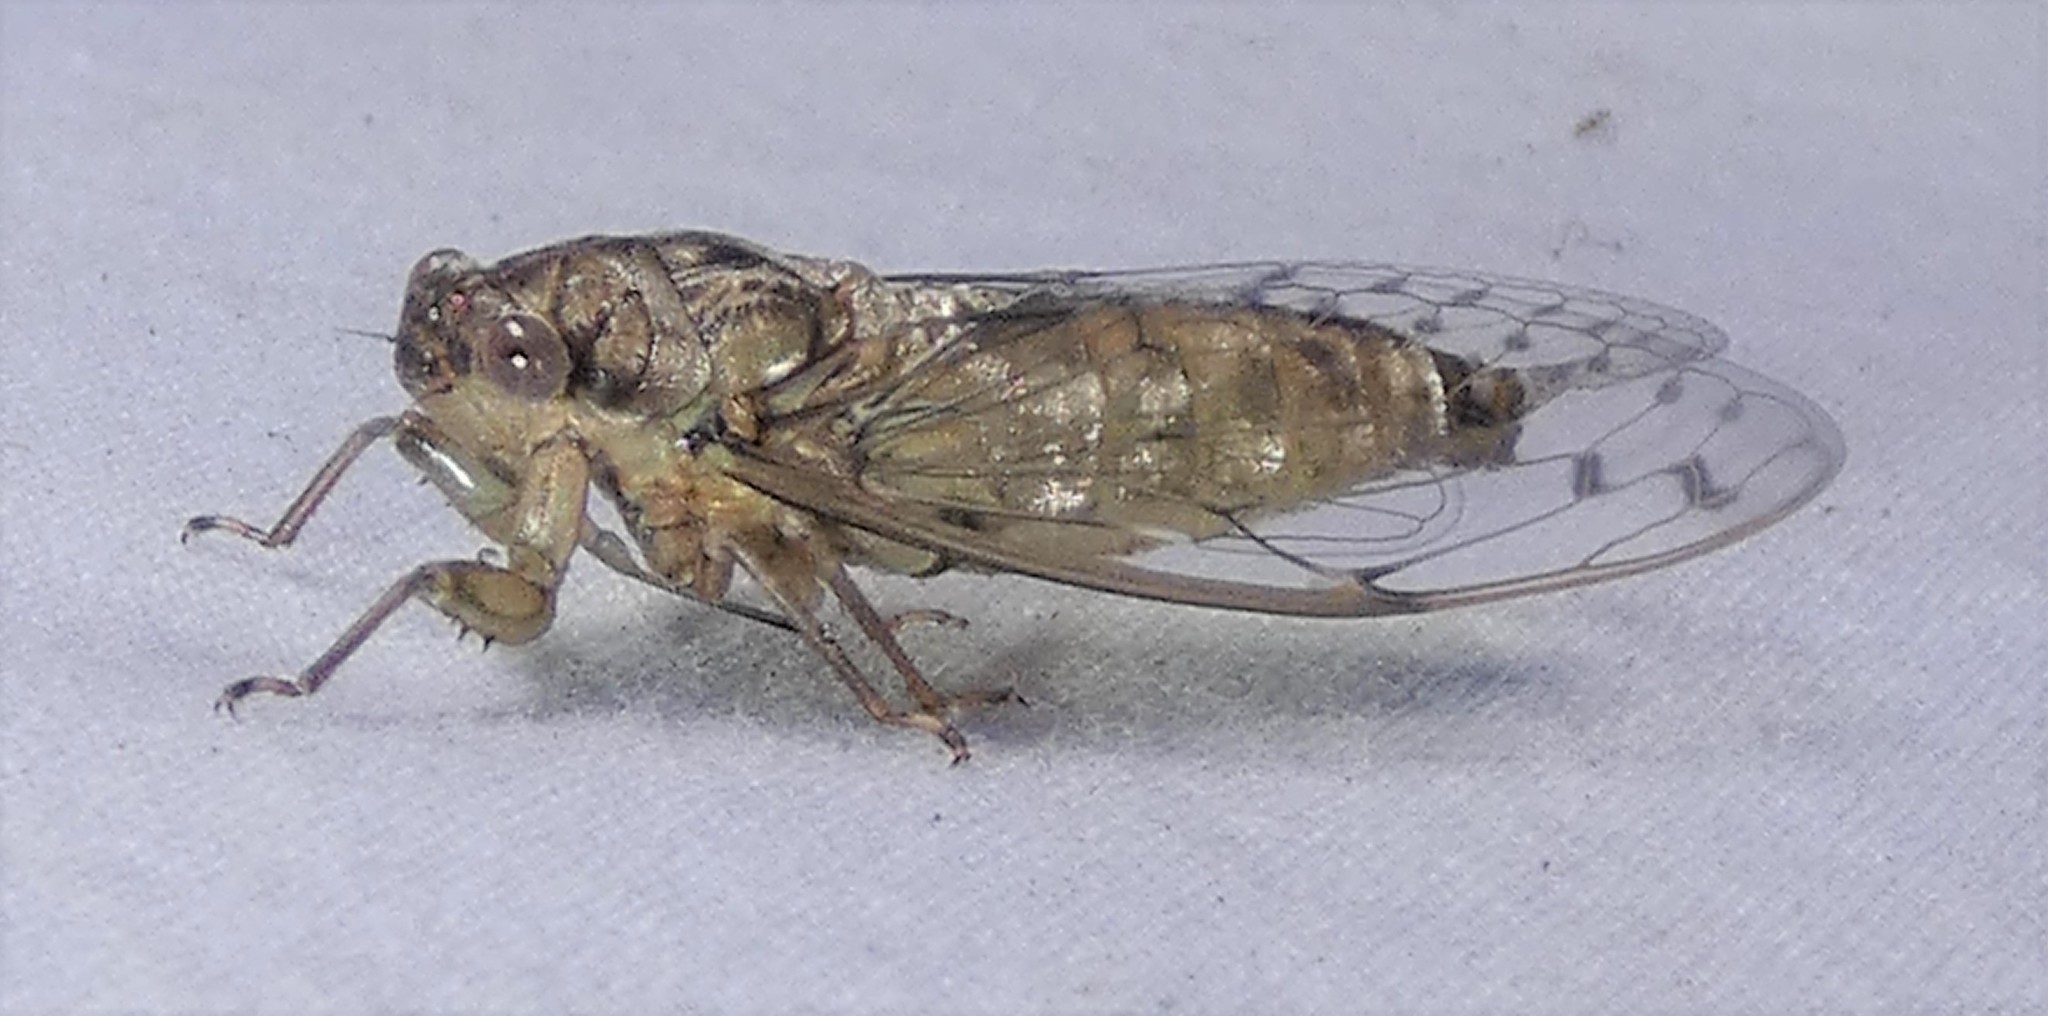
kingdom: Animalia
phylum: Arthropoda
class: Insecta
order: Hemiptera
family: Cicadidae
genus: Neocicada
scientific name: Neocicada hieroglyphica
